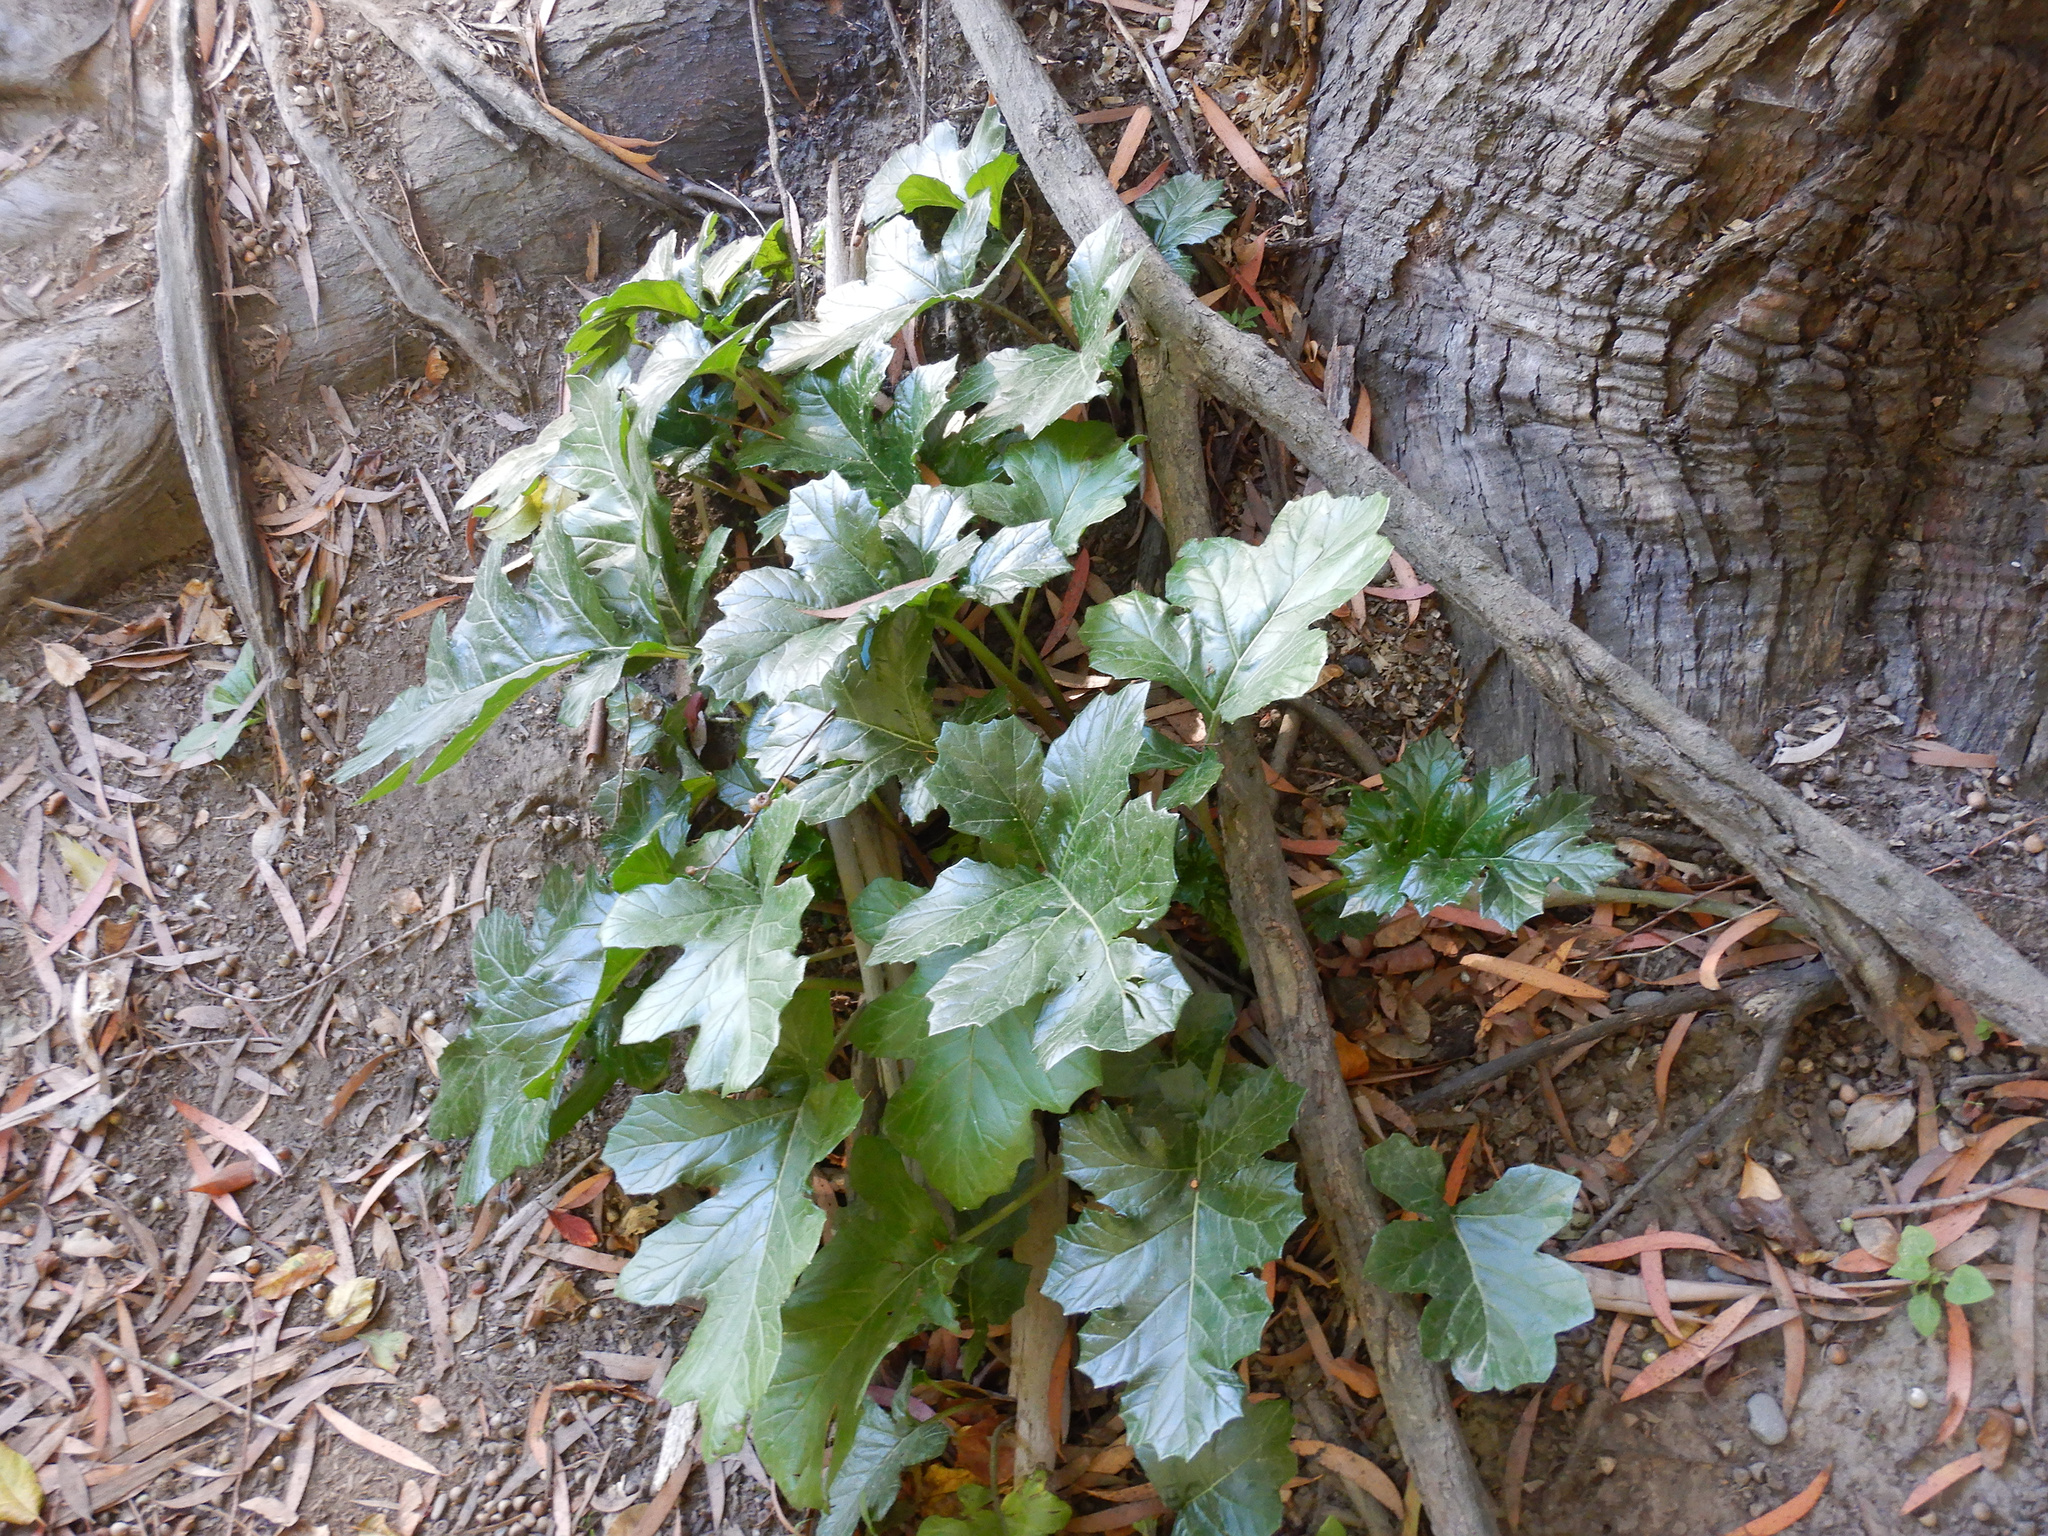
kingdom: Plantae
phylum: Tracheophyta
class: Magnoliopsida
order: Lamiales
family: Acanthaceae
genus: Acanthus
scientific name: Acanthus mollis
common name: Bear's-breech
